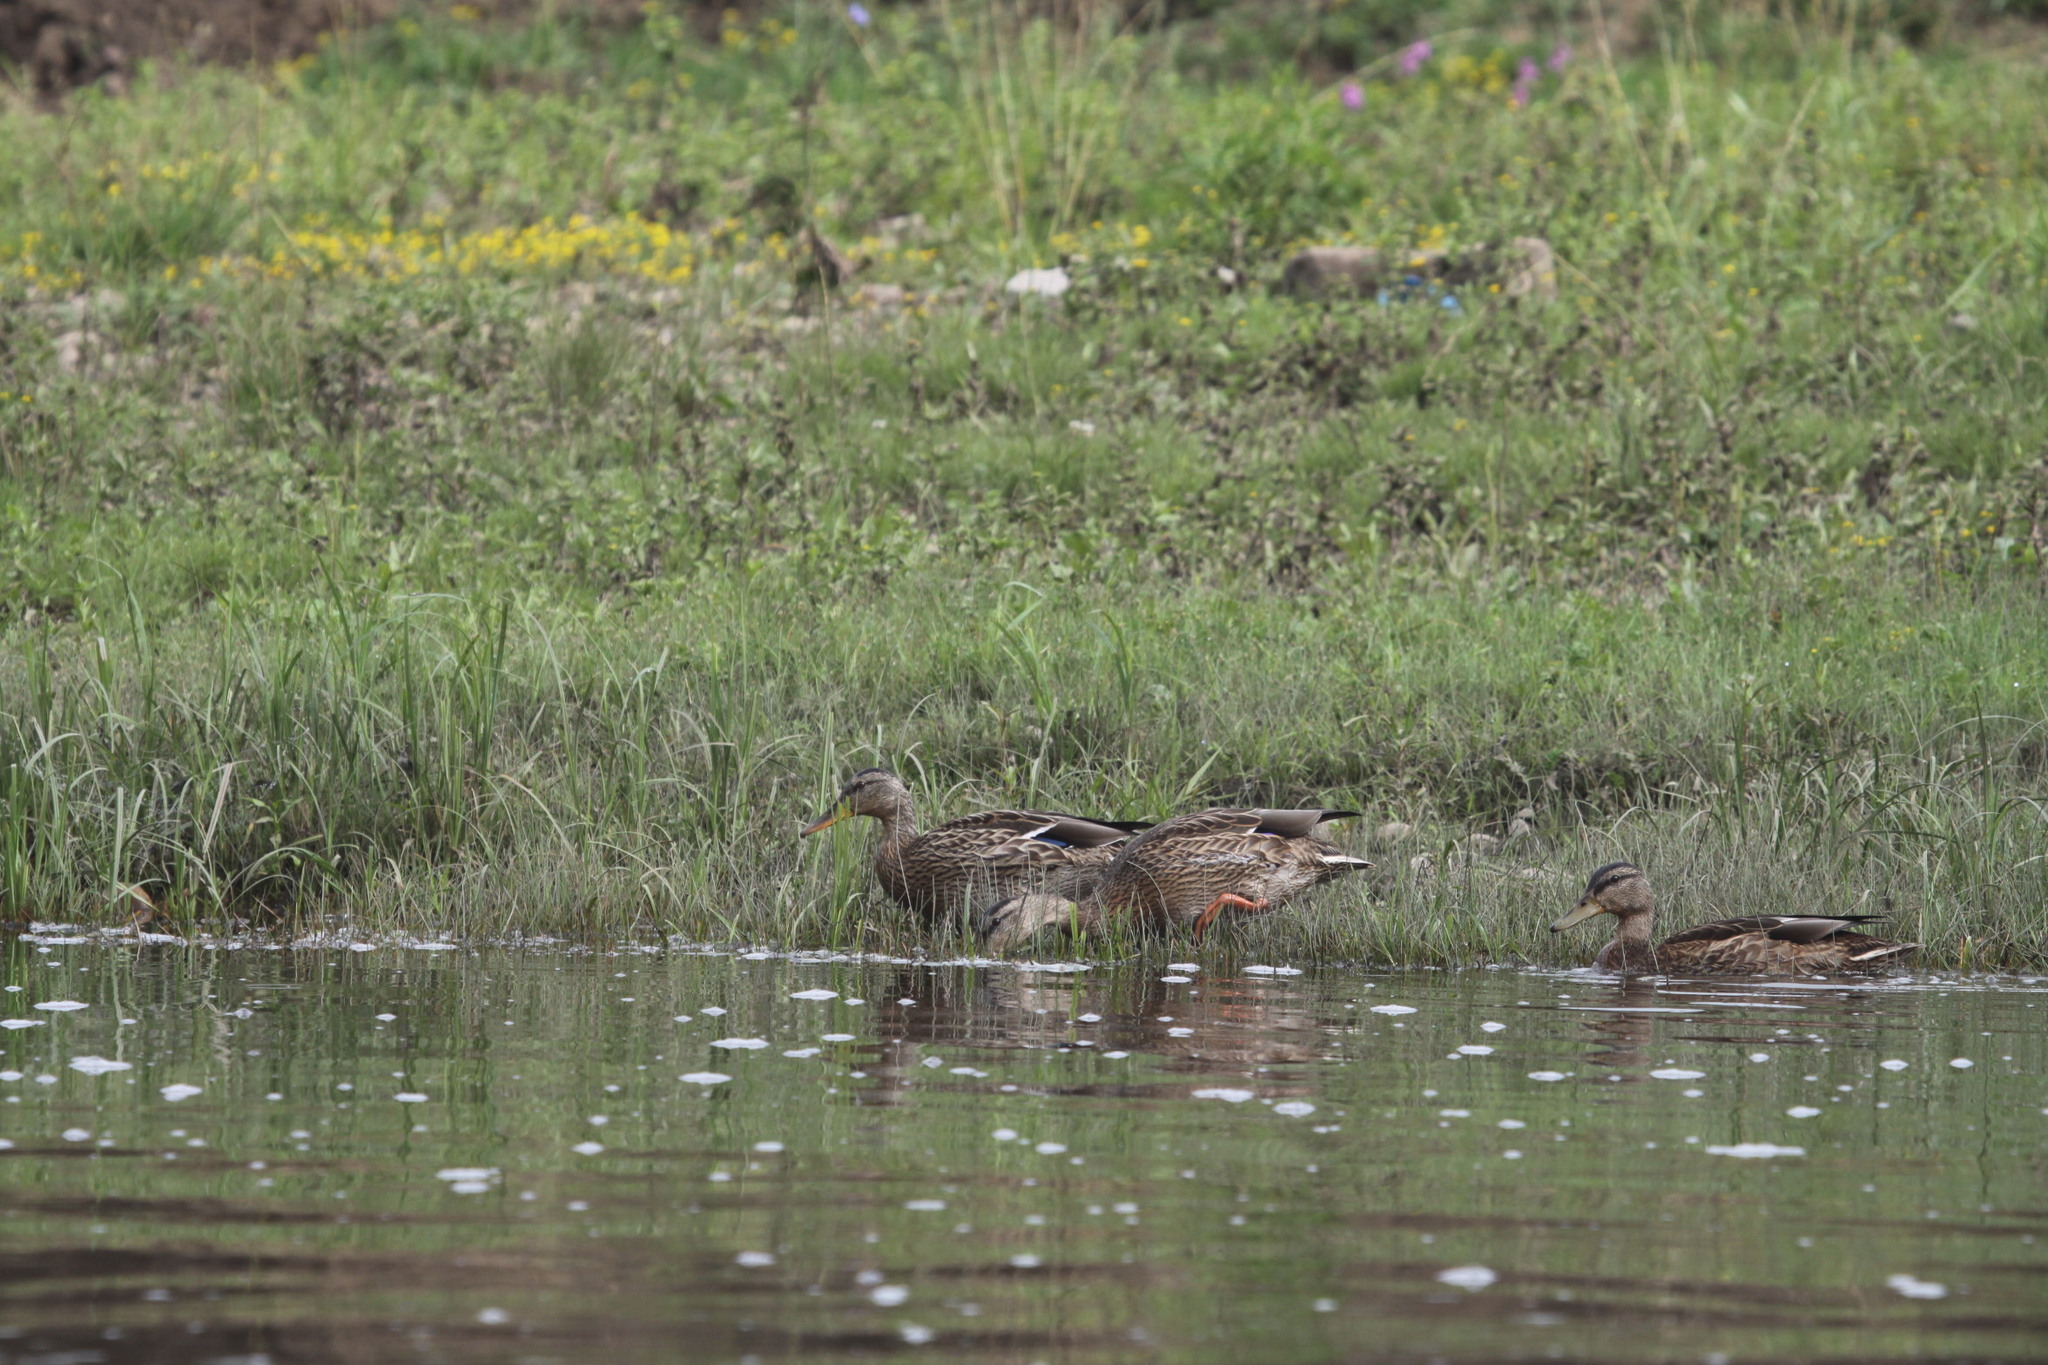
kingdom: Animalia
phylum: Chordata
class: Aves
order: Anseriformes
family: Anatidae
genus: Anas
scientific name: Anas platyrhynchos
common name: Mallard
